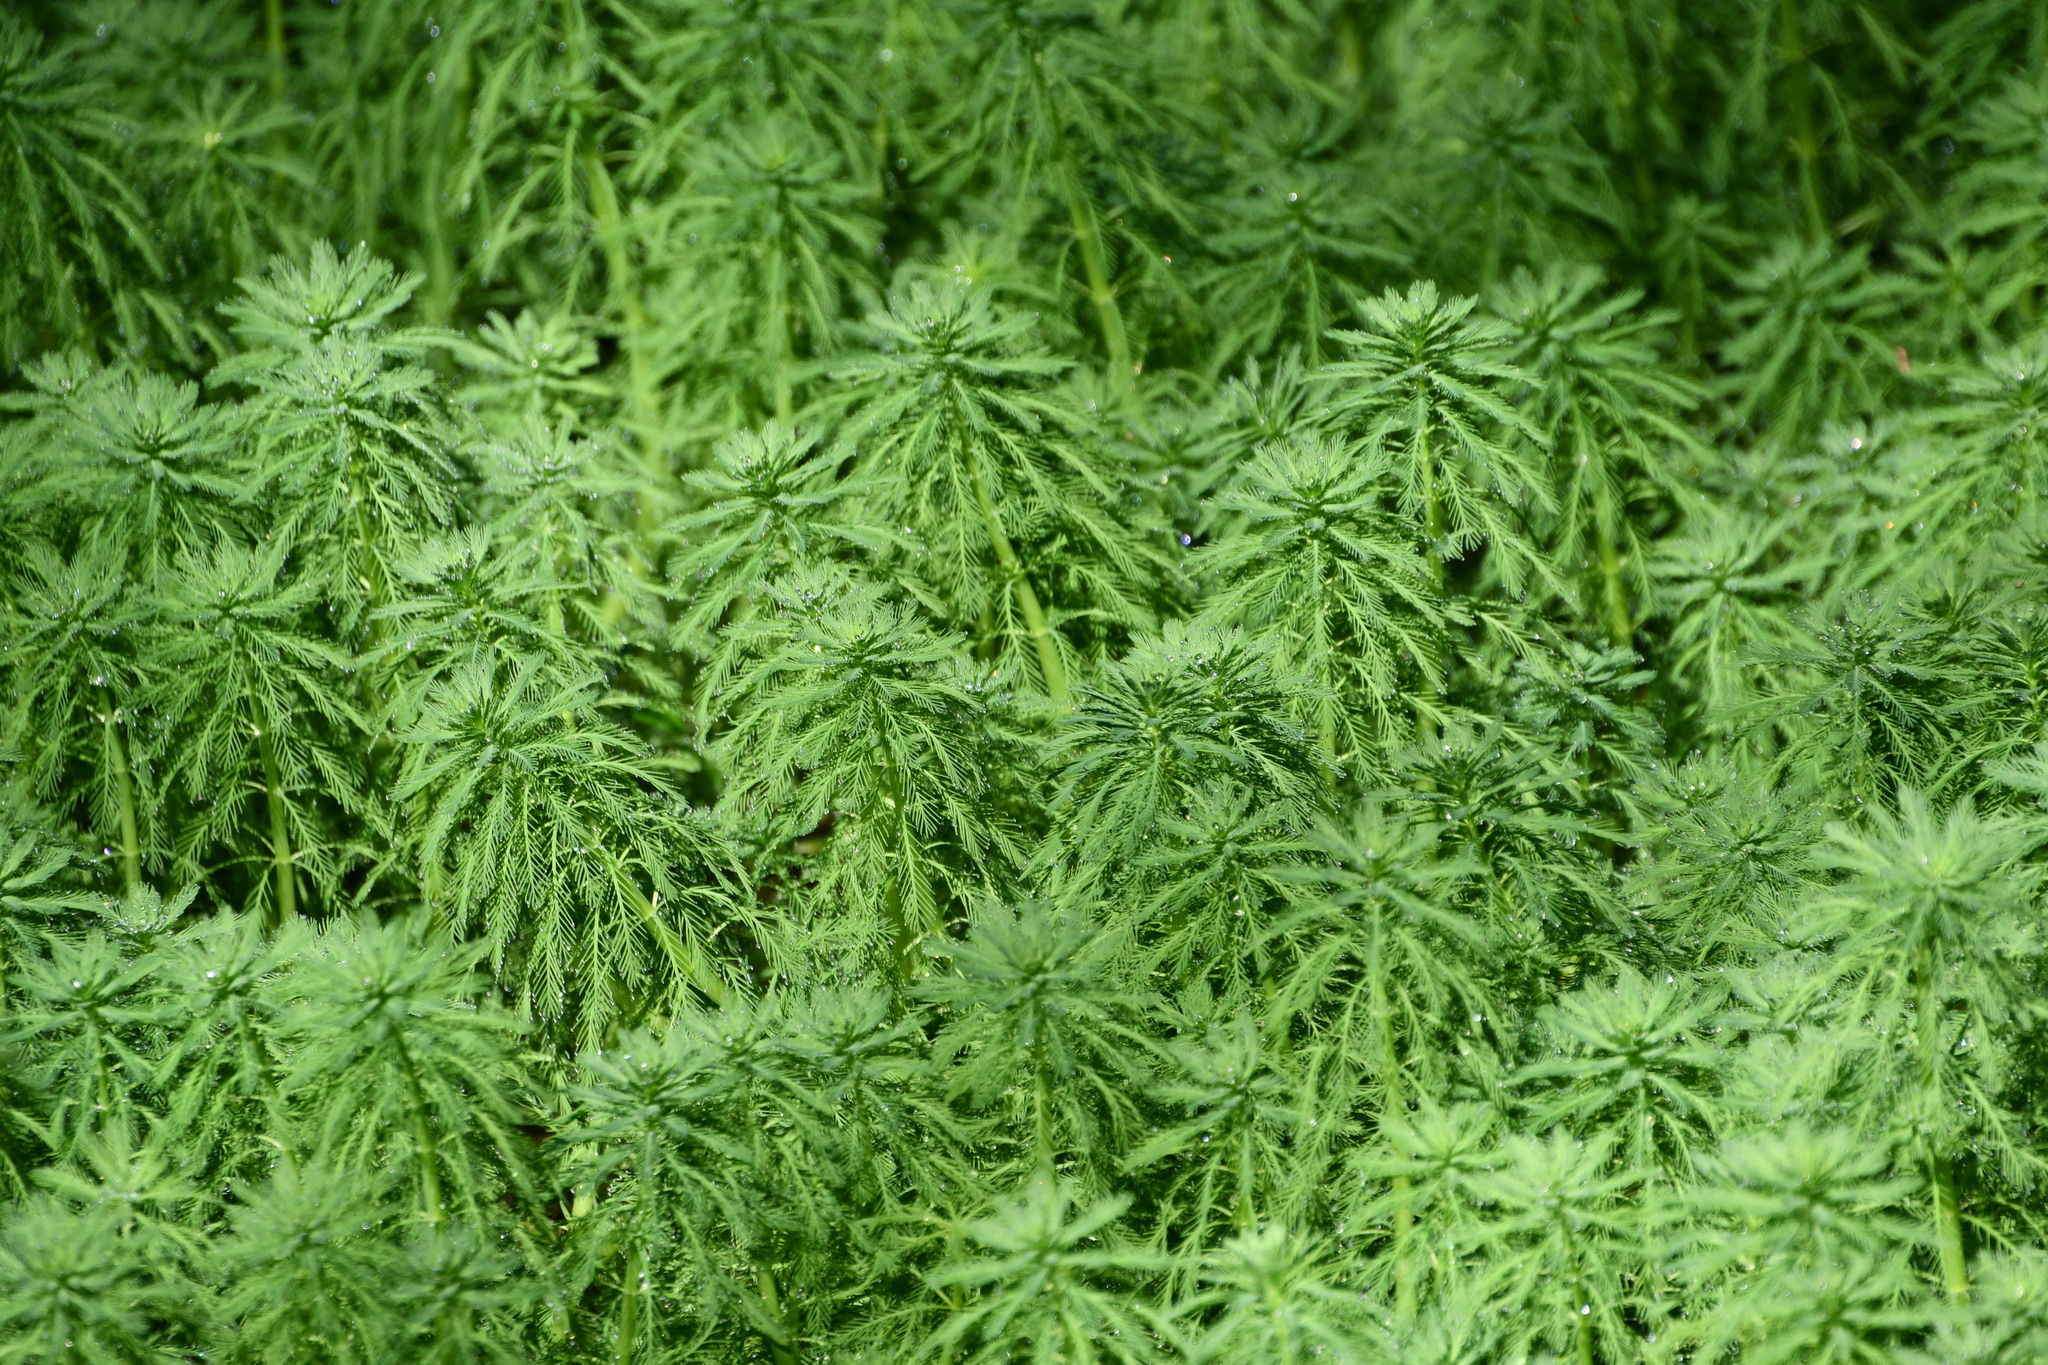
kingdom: Plantae
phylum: Tracheophyta
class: Magnoliopsida
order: Saxifragales
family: Haloragaceae
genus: Myriophyllum
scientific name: Myriophyllum aquaticum
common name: Parrot's feather
